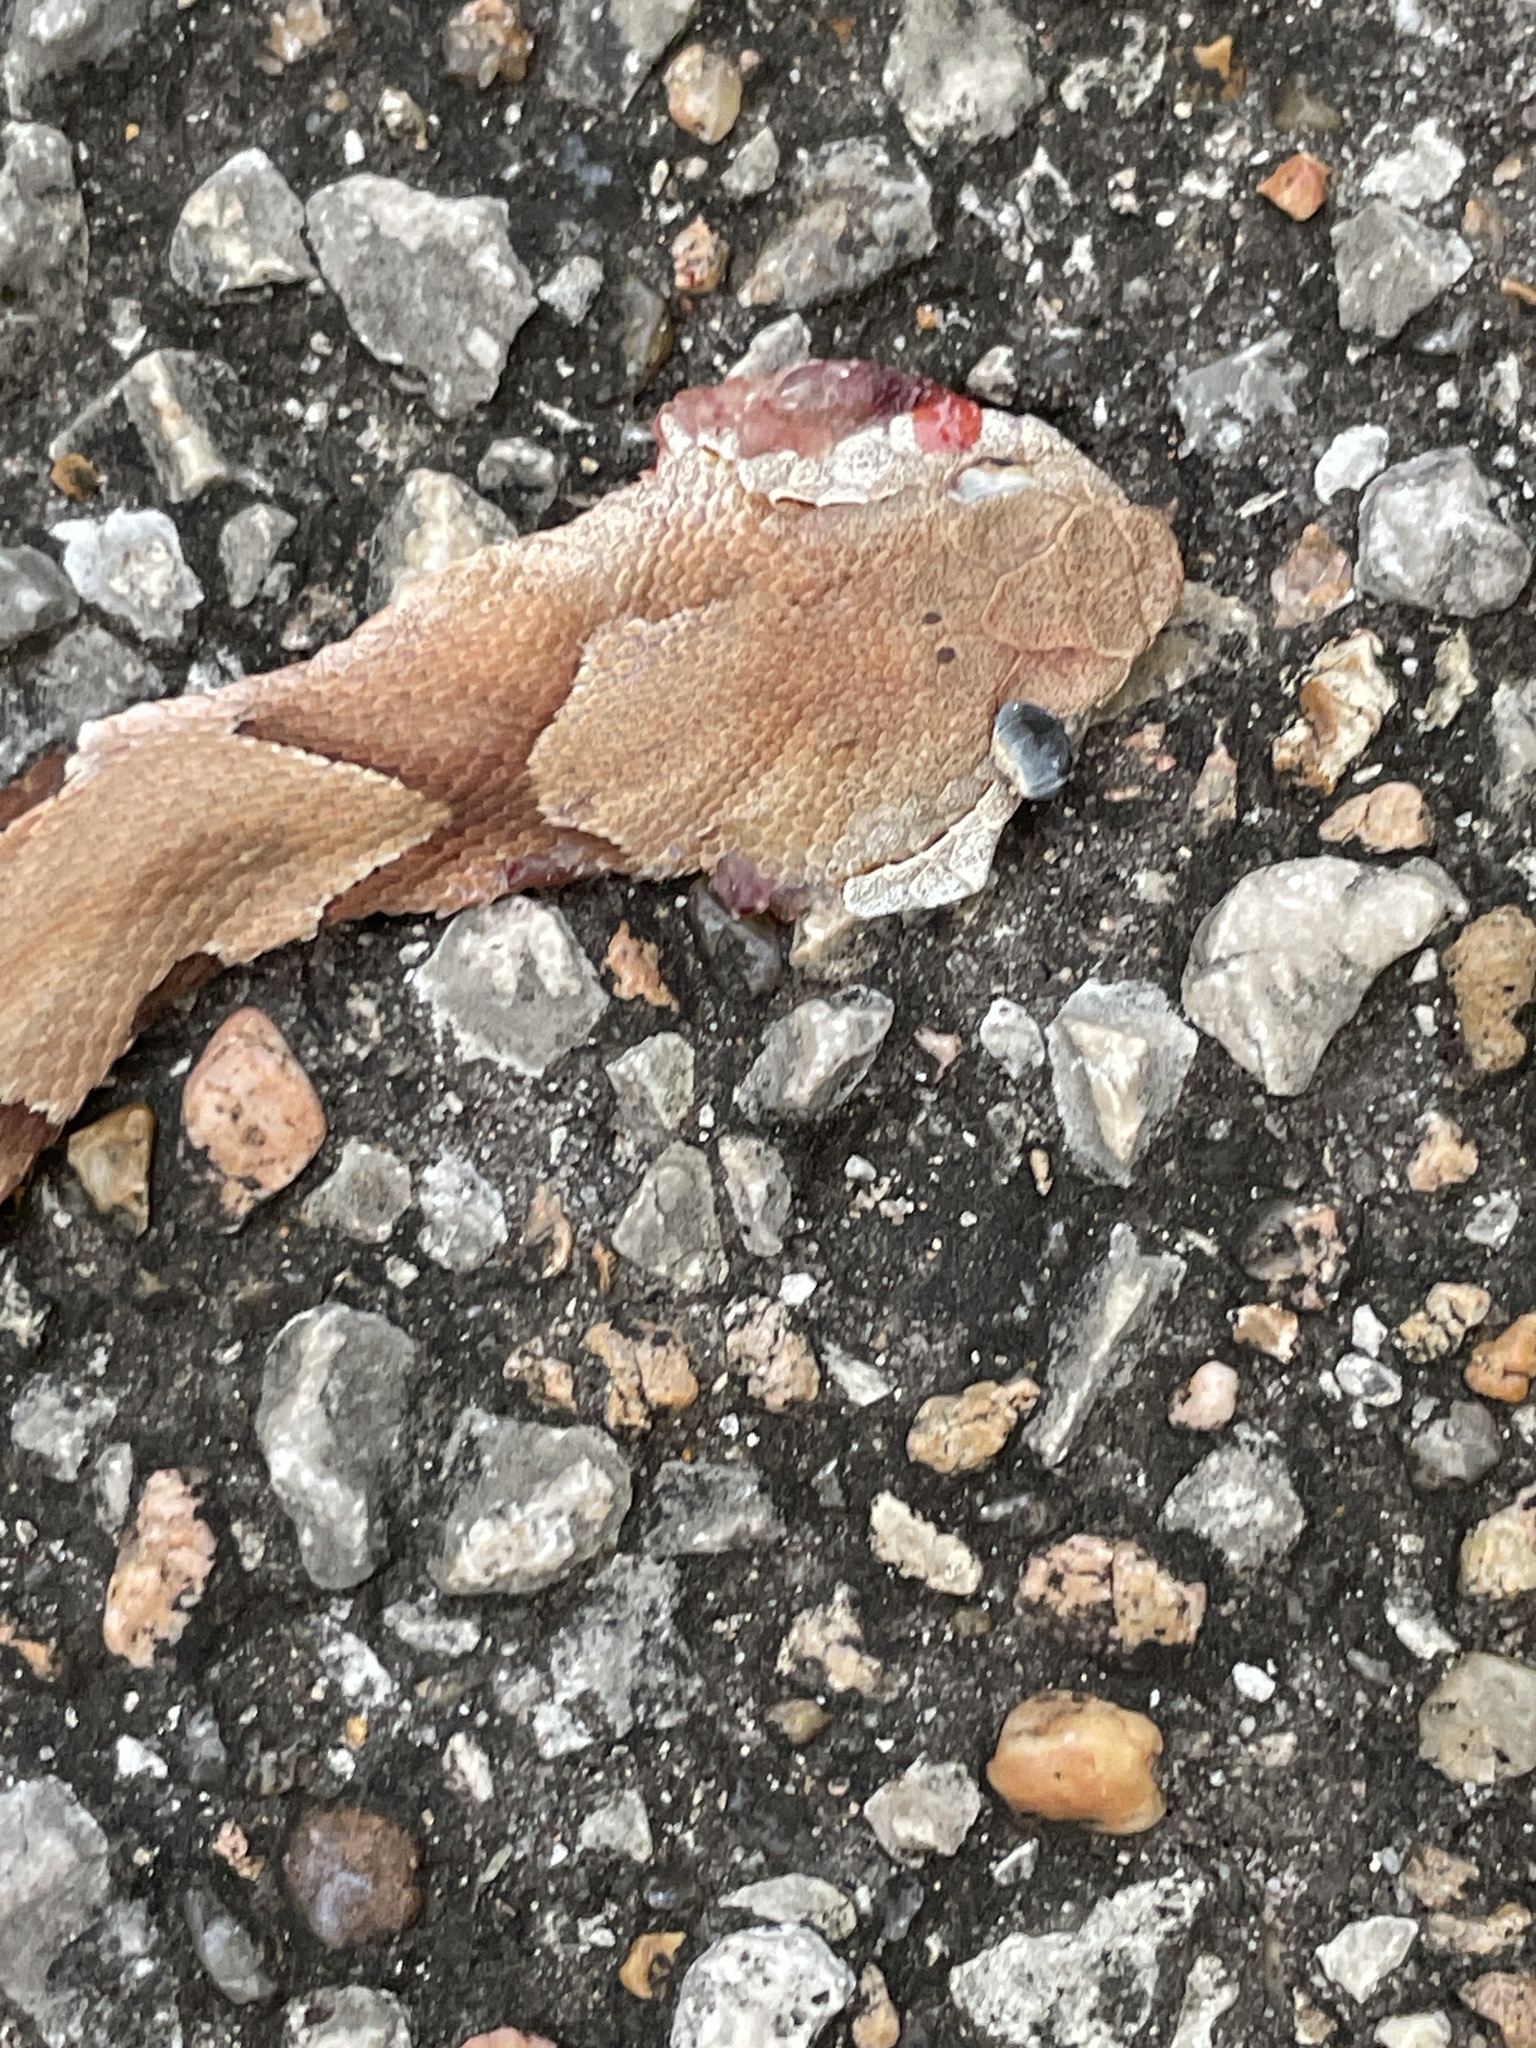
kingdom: Animalia
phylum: Chordata
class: Squamata
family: Viperidae
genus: Agkistrodon
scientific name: Agkistrodon contortrix
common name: Northern copperhead
